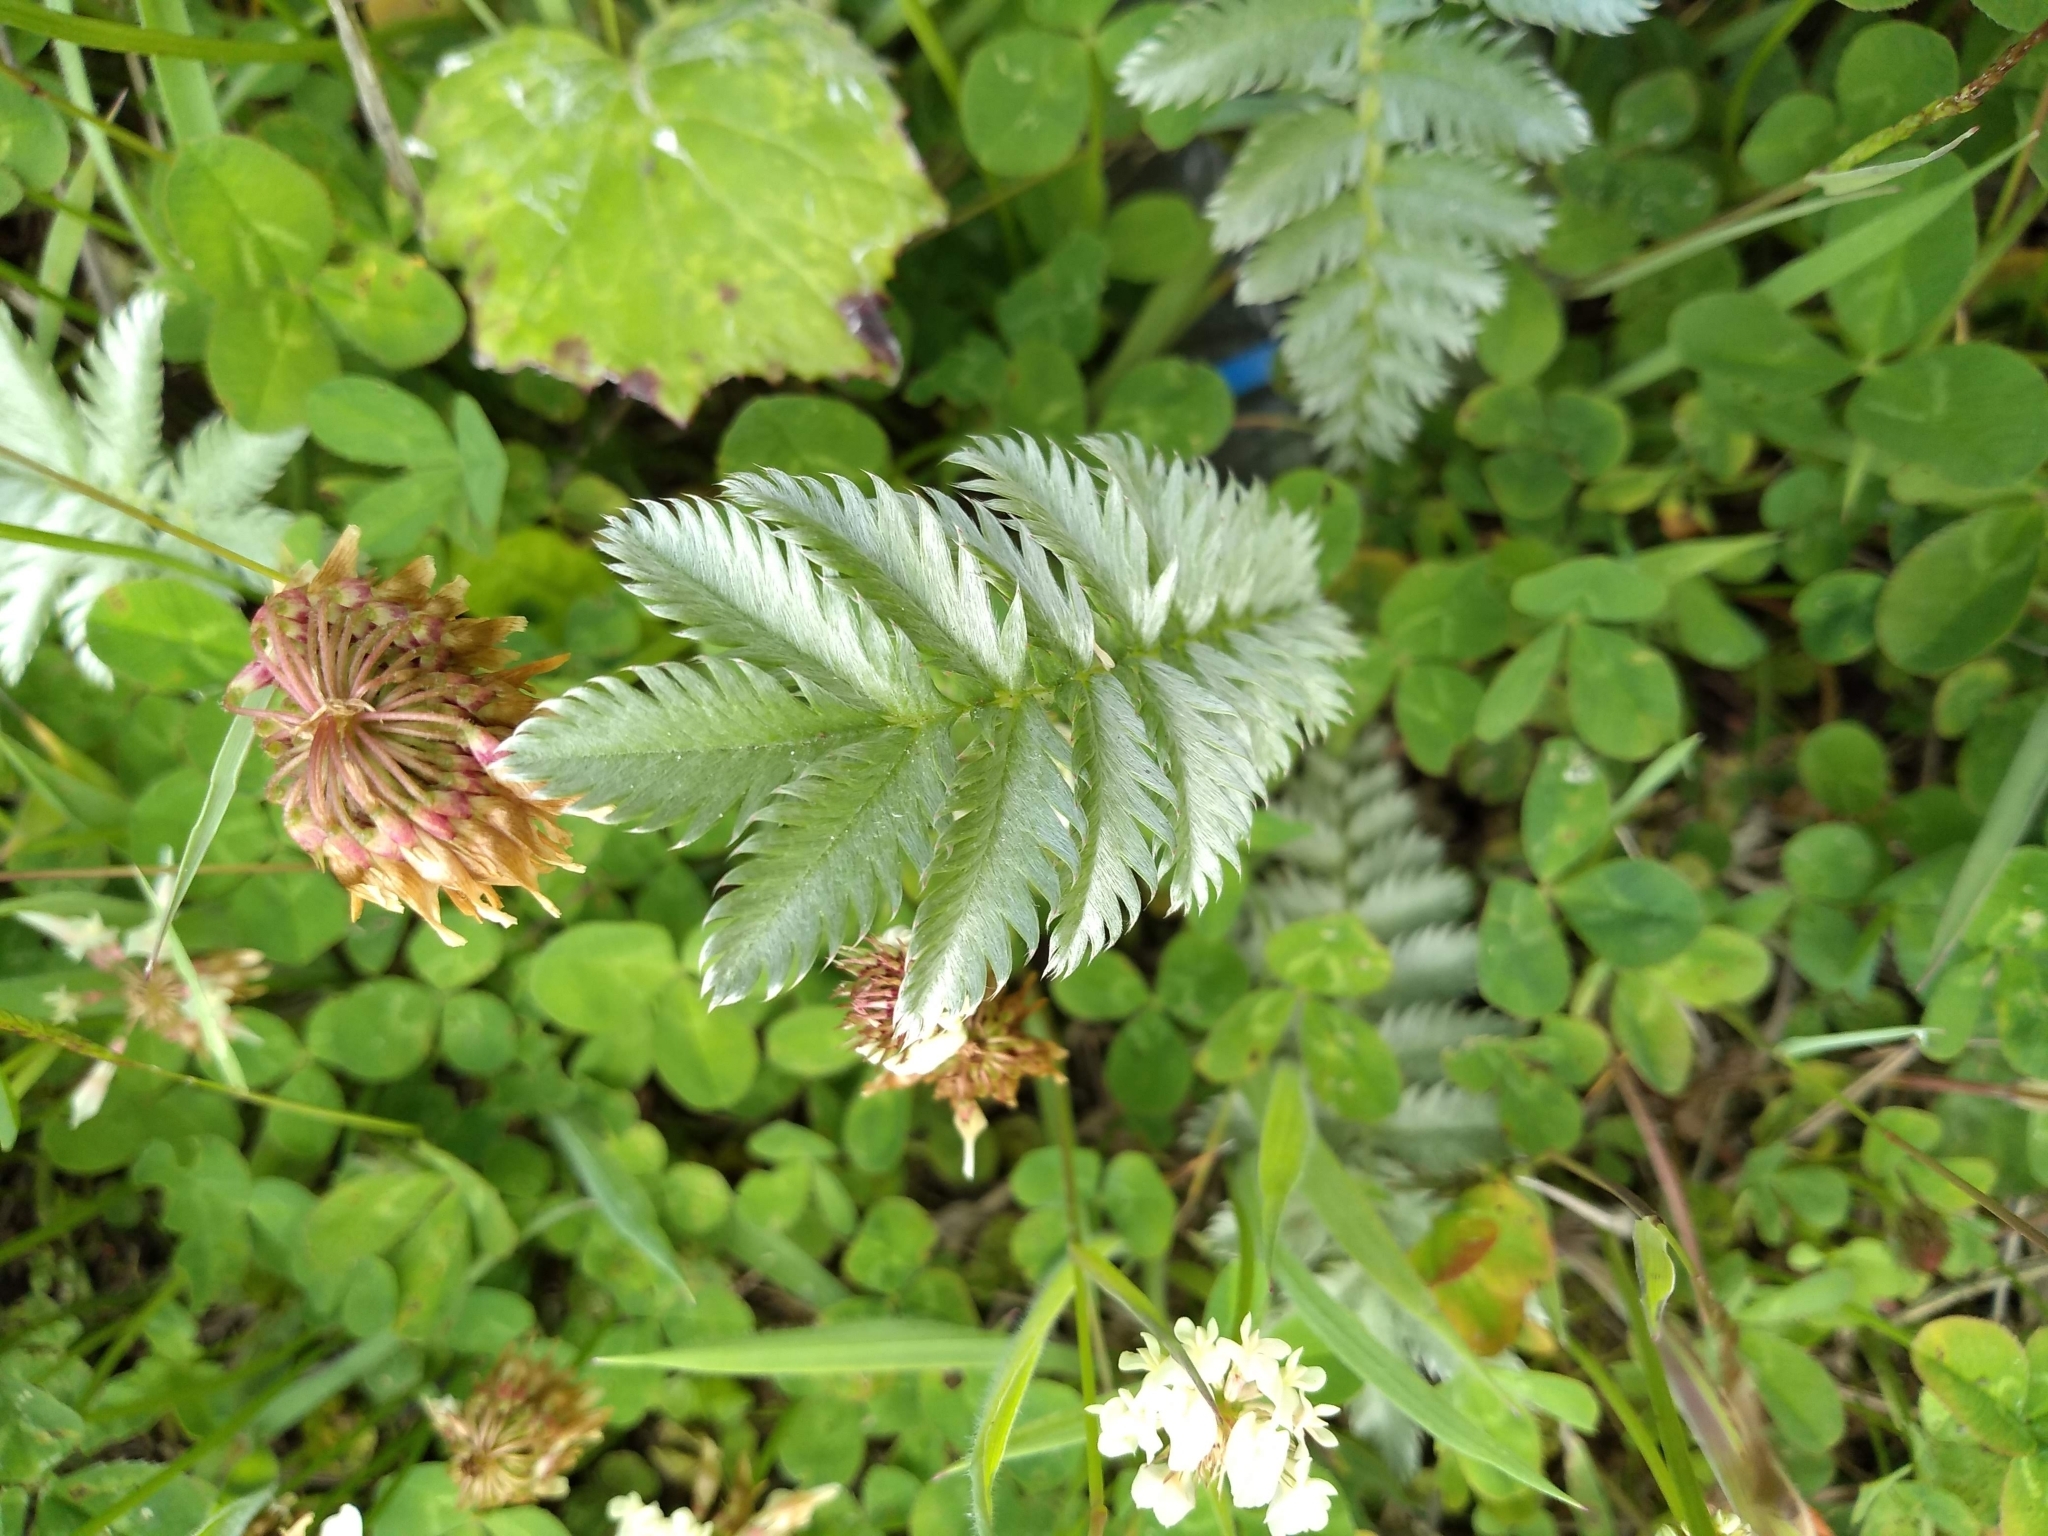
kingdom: Plantae
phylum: Tracheophyta
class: Magnoliopsida
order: Rosales
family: Rosaceae
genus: Argentina
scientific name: Argentina anserina
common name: Common silverweed
